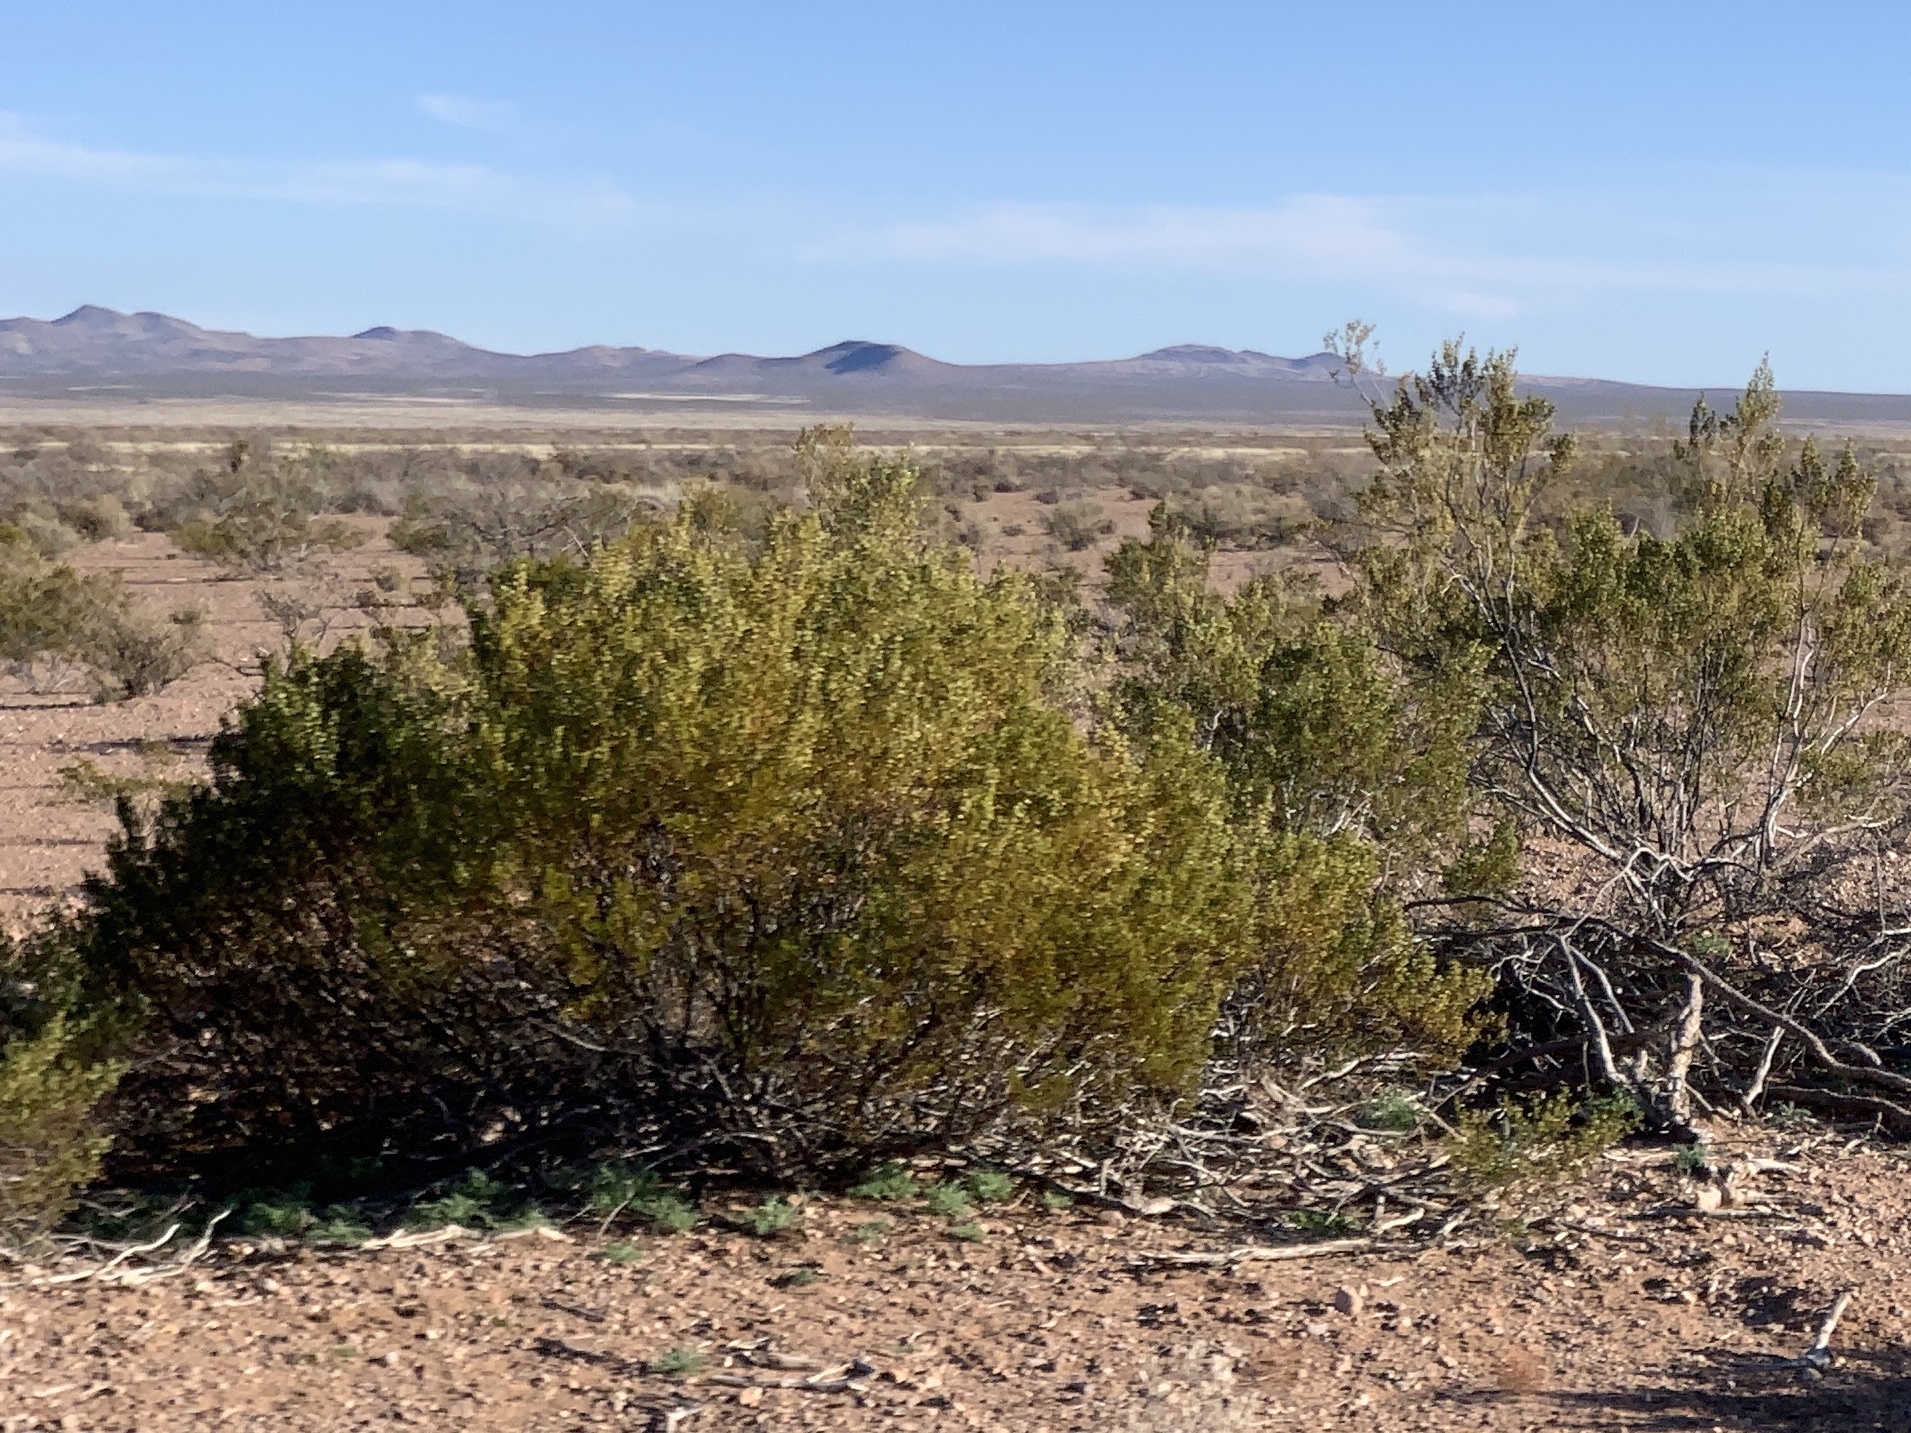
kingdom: Plantae
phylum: Tracheophyta
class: Magnoliopsida
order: Zygophyllales
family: Zygophyllaceae
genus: Larrea
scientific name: Larrea tridentata
